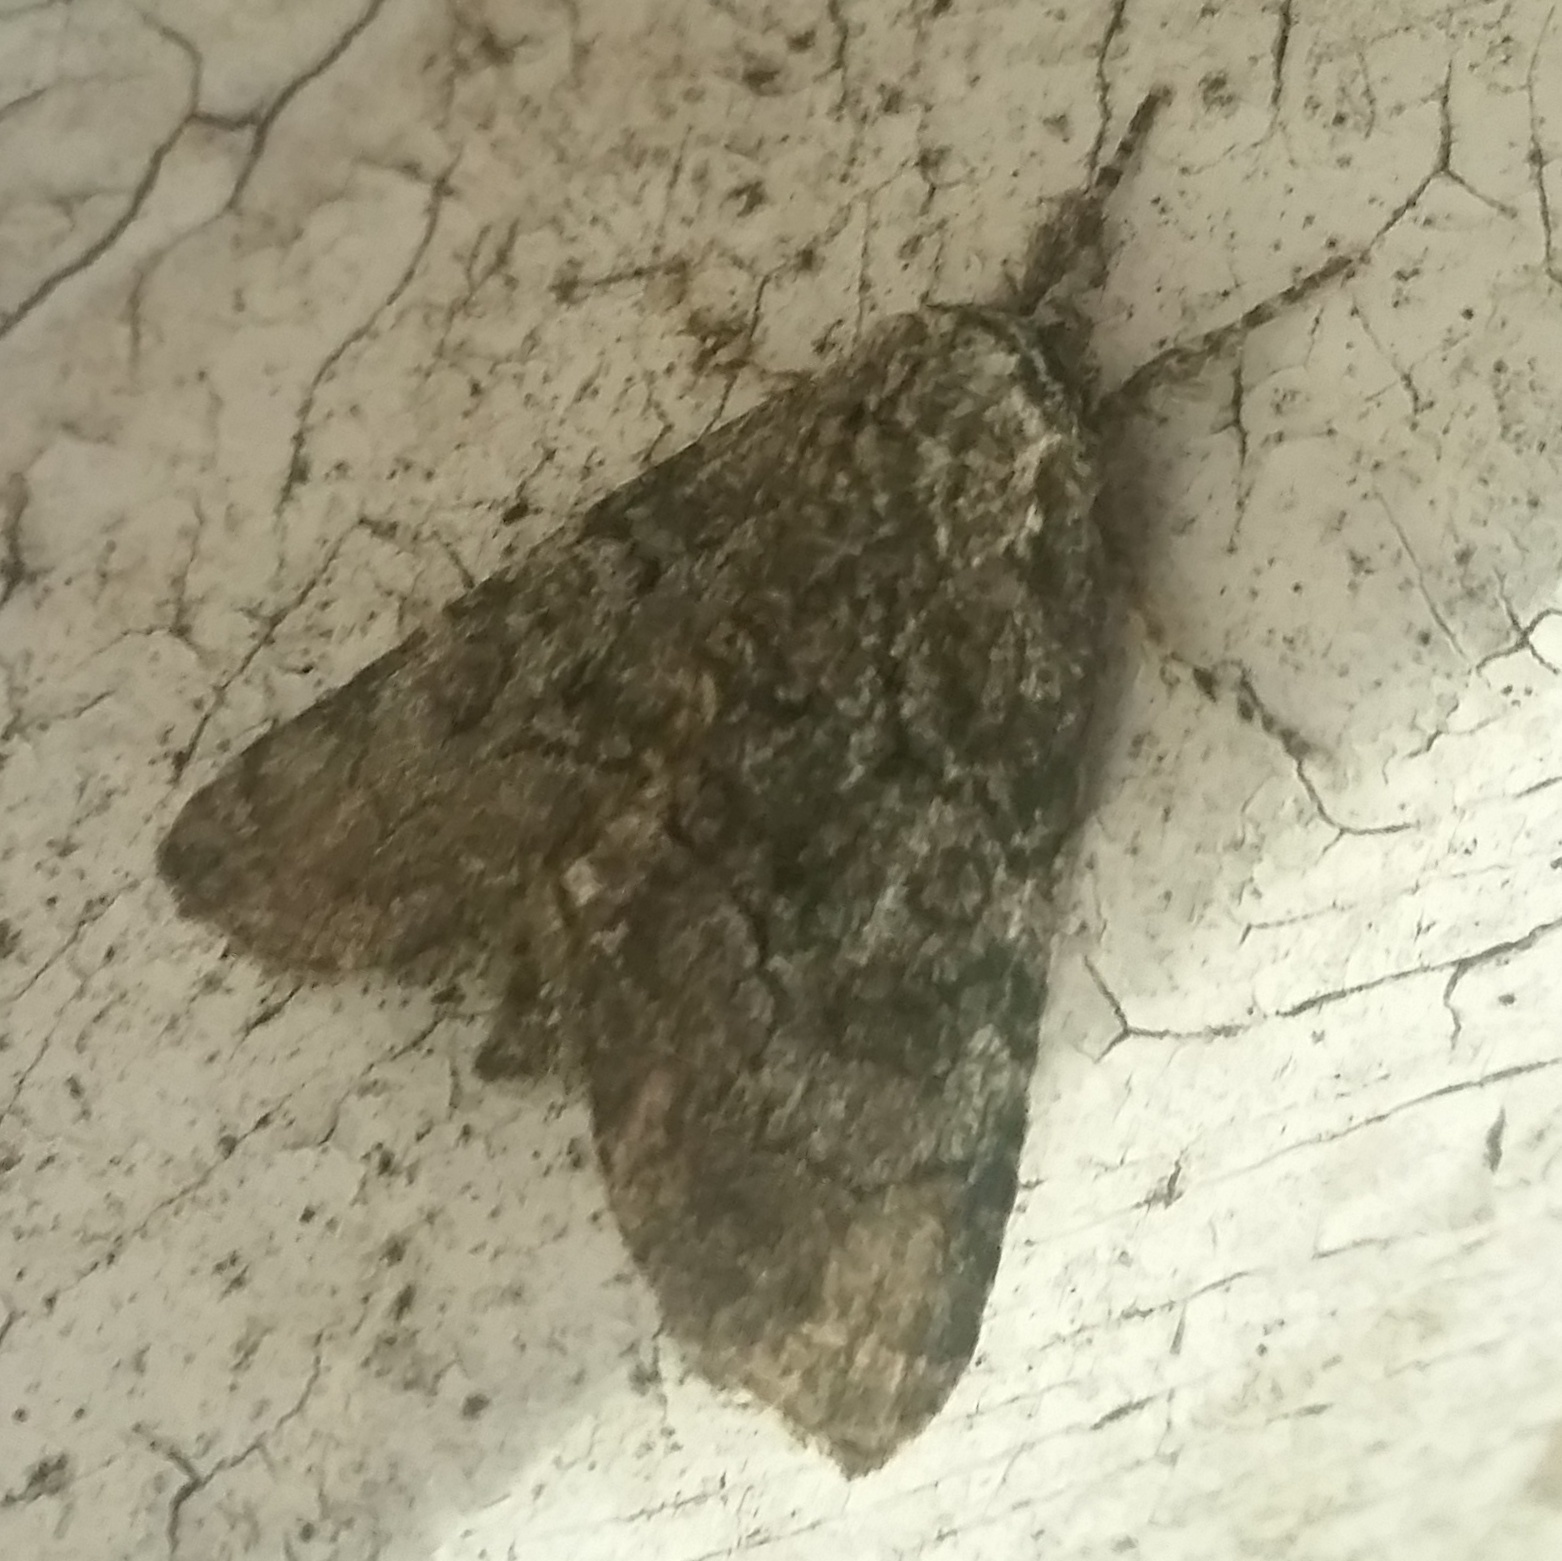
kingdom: Animalia
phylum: Arthropoda
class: Insecta
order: Lepidoptera
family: Noctuidae
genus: Raphia
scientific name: Raphia frater
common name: Brother
